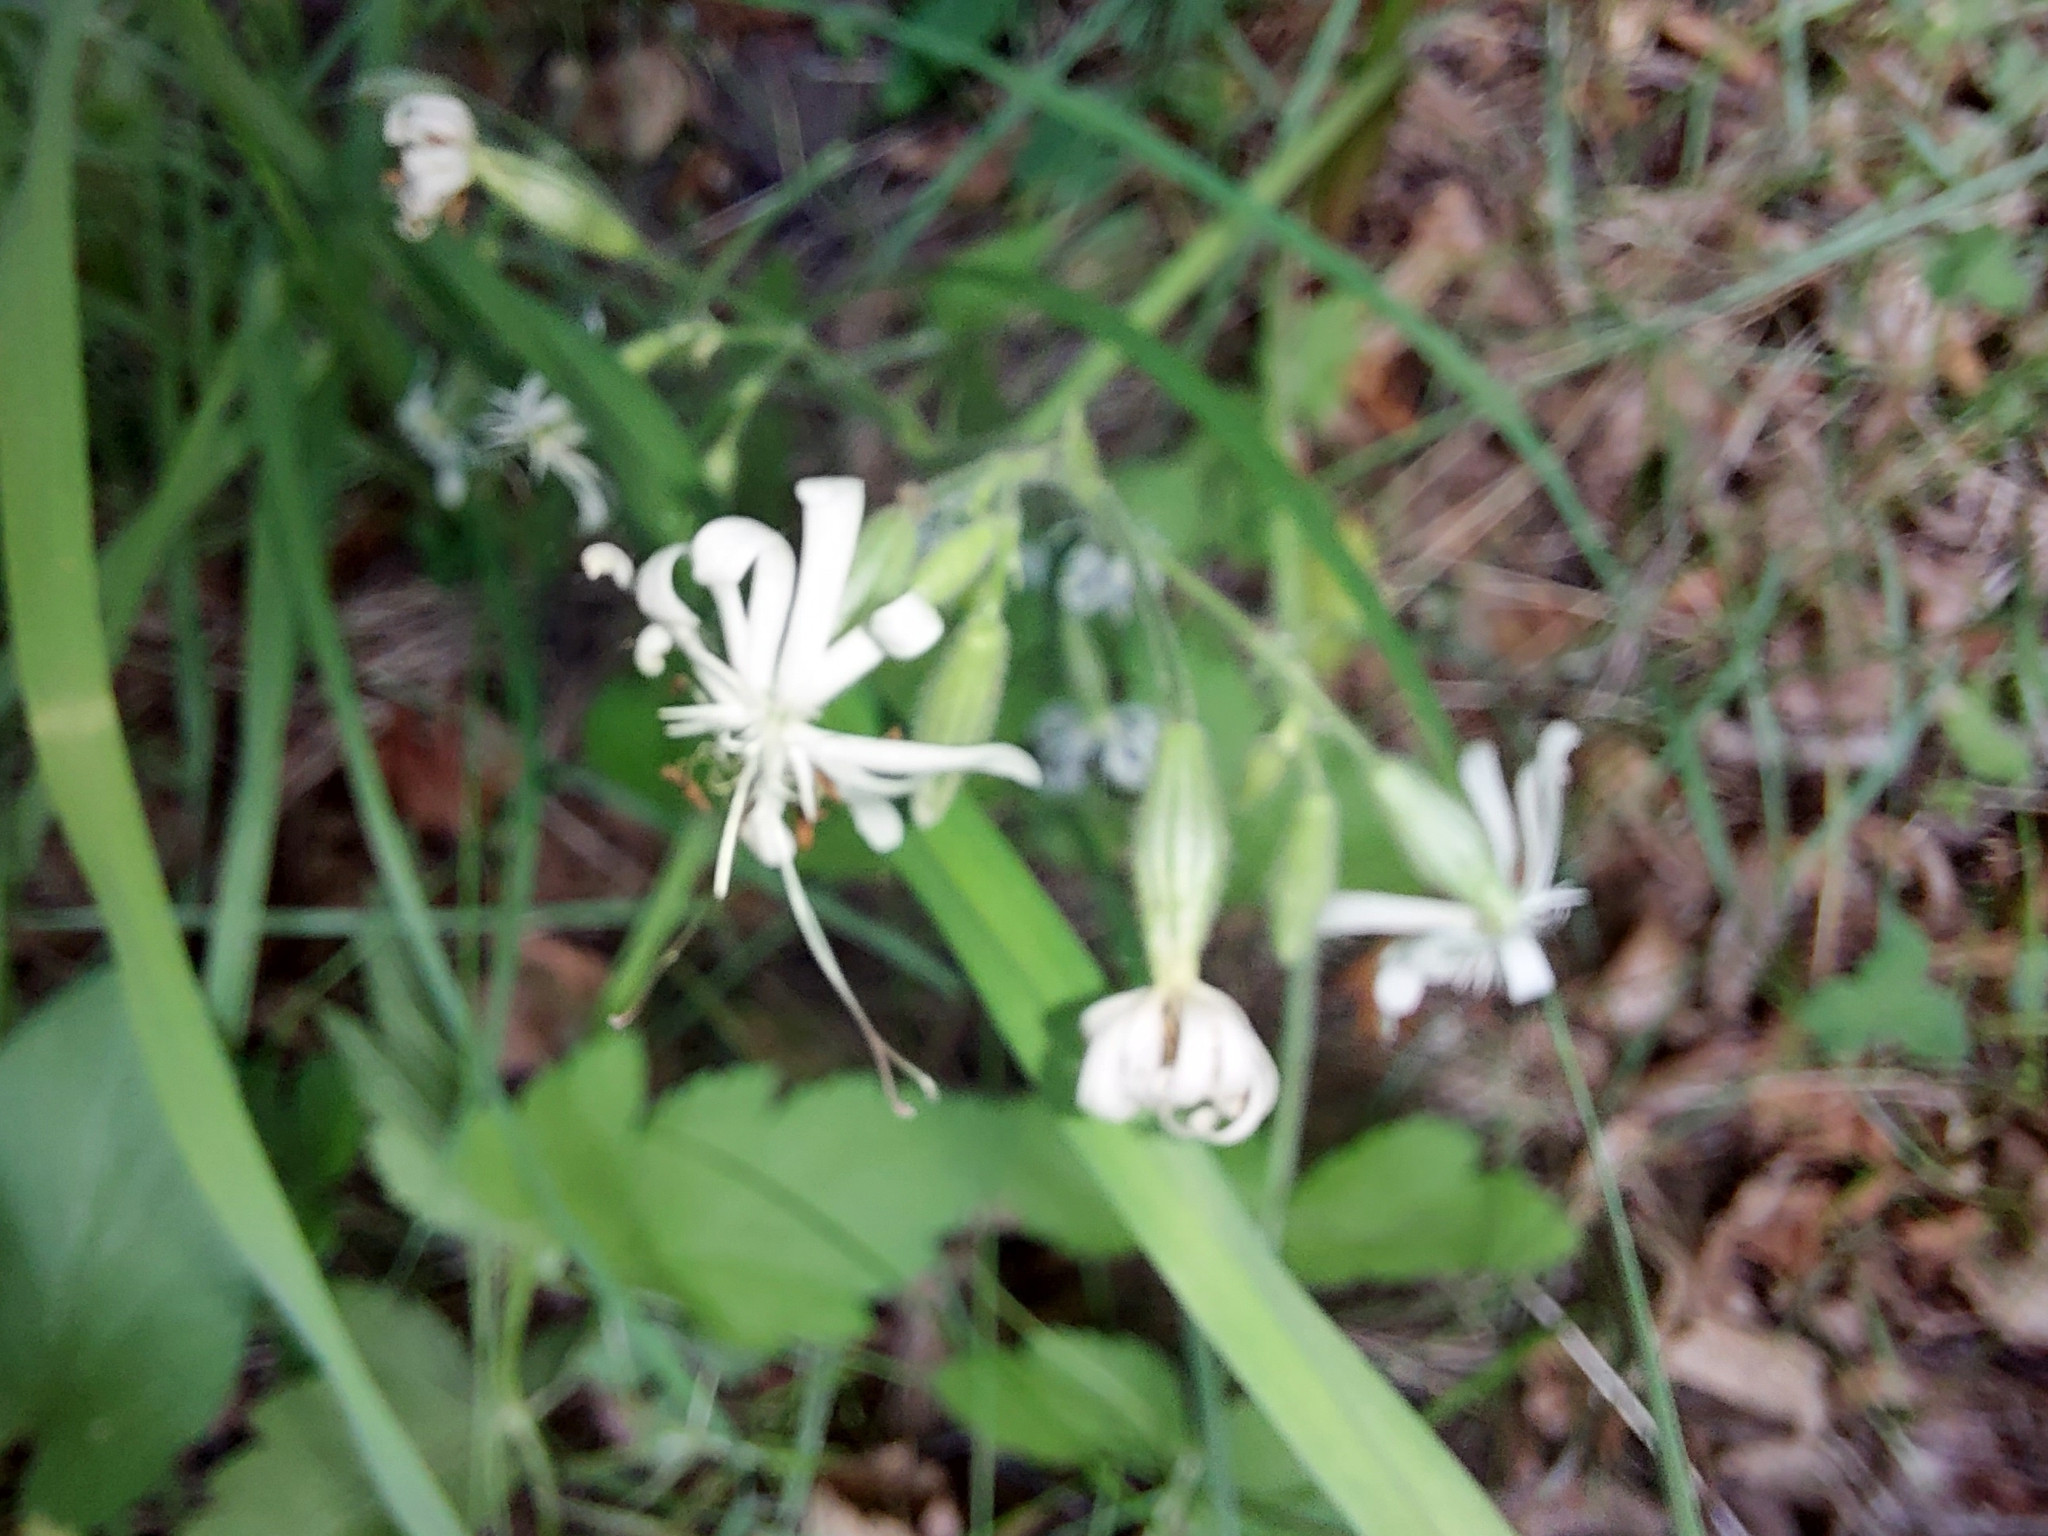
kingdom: Plantae
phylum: Tracheophyta
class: Magnoliopsida
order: Caryophyllales
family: Caryophyllaceae
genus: Silene
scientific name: Silene nutans
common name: Nottingham catchfly
